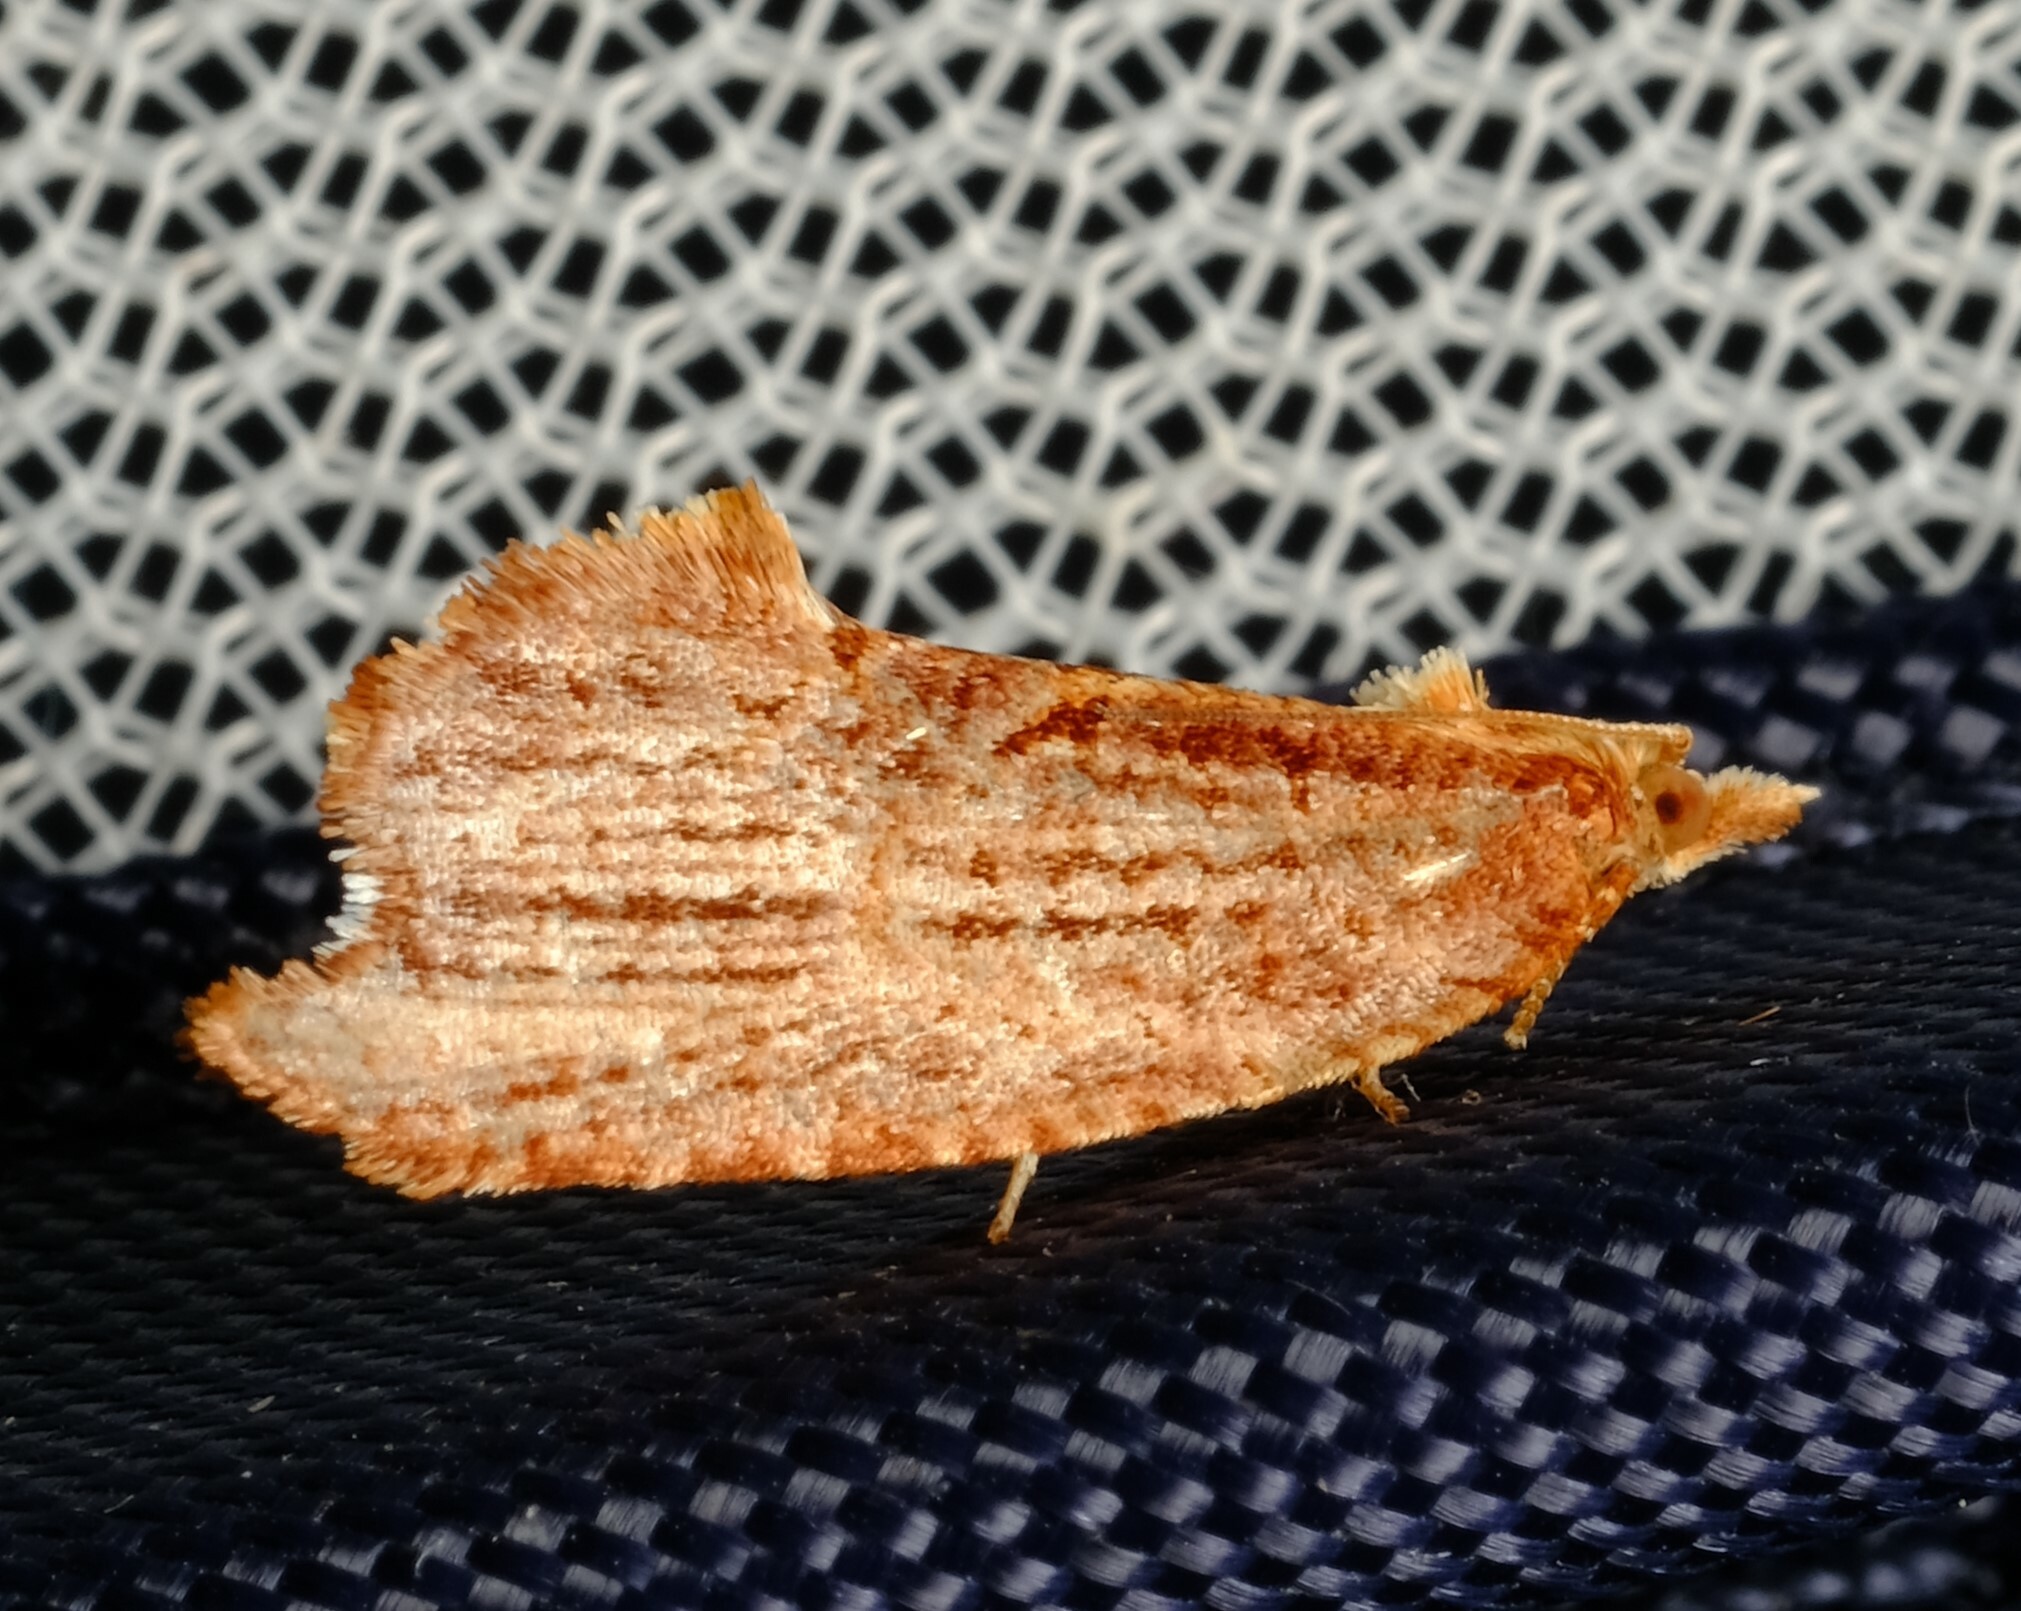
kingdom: Animalia
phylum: Arthropoda
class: Insecta
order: Lepidoptera
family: Tortricidae
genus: Glyphidoptera
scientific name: Glyphidoptera polymita
